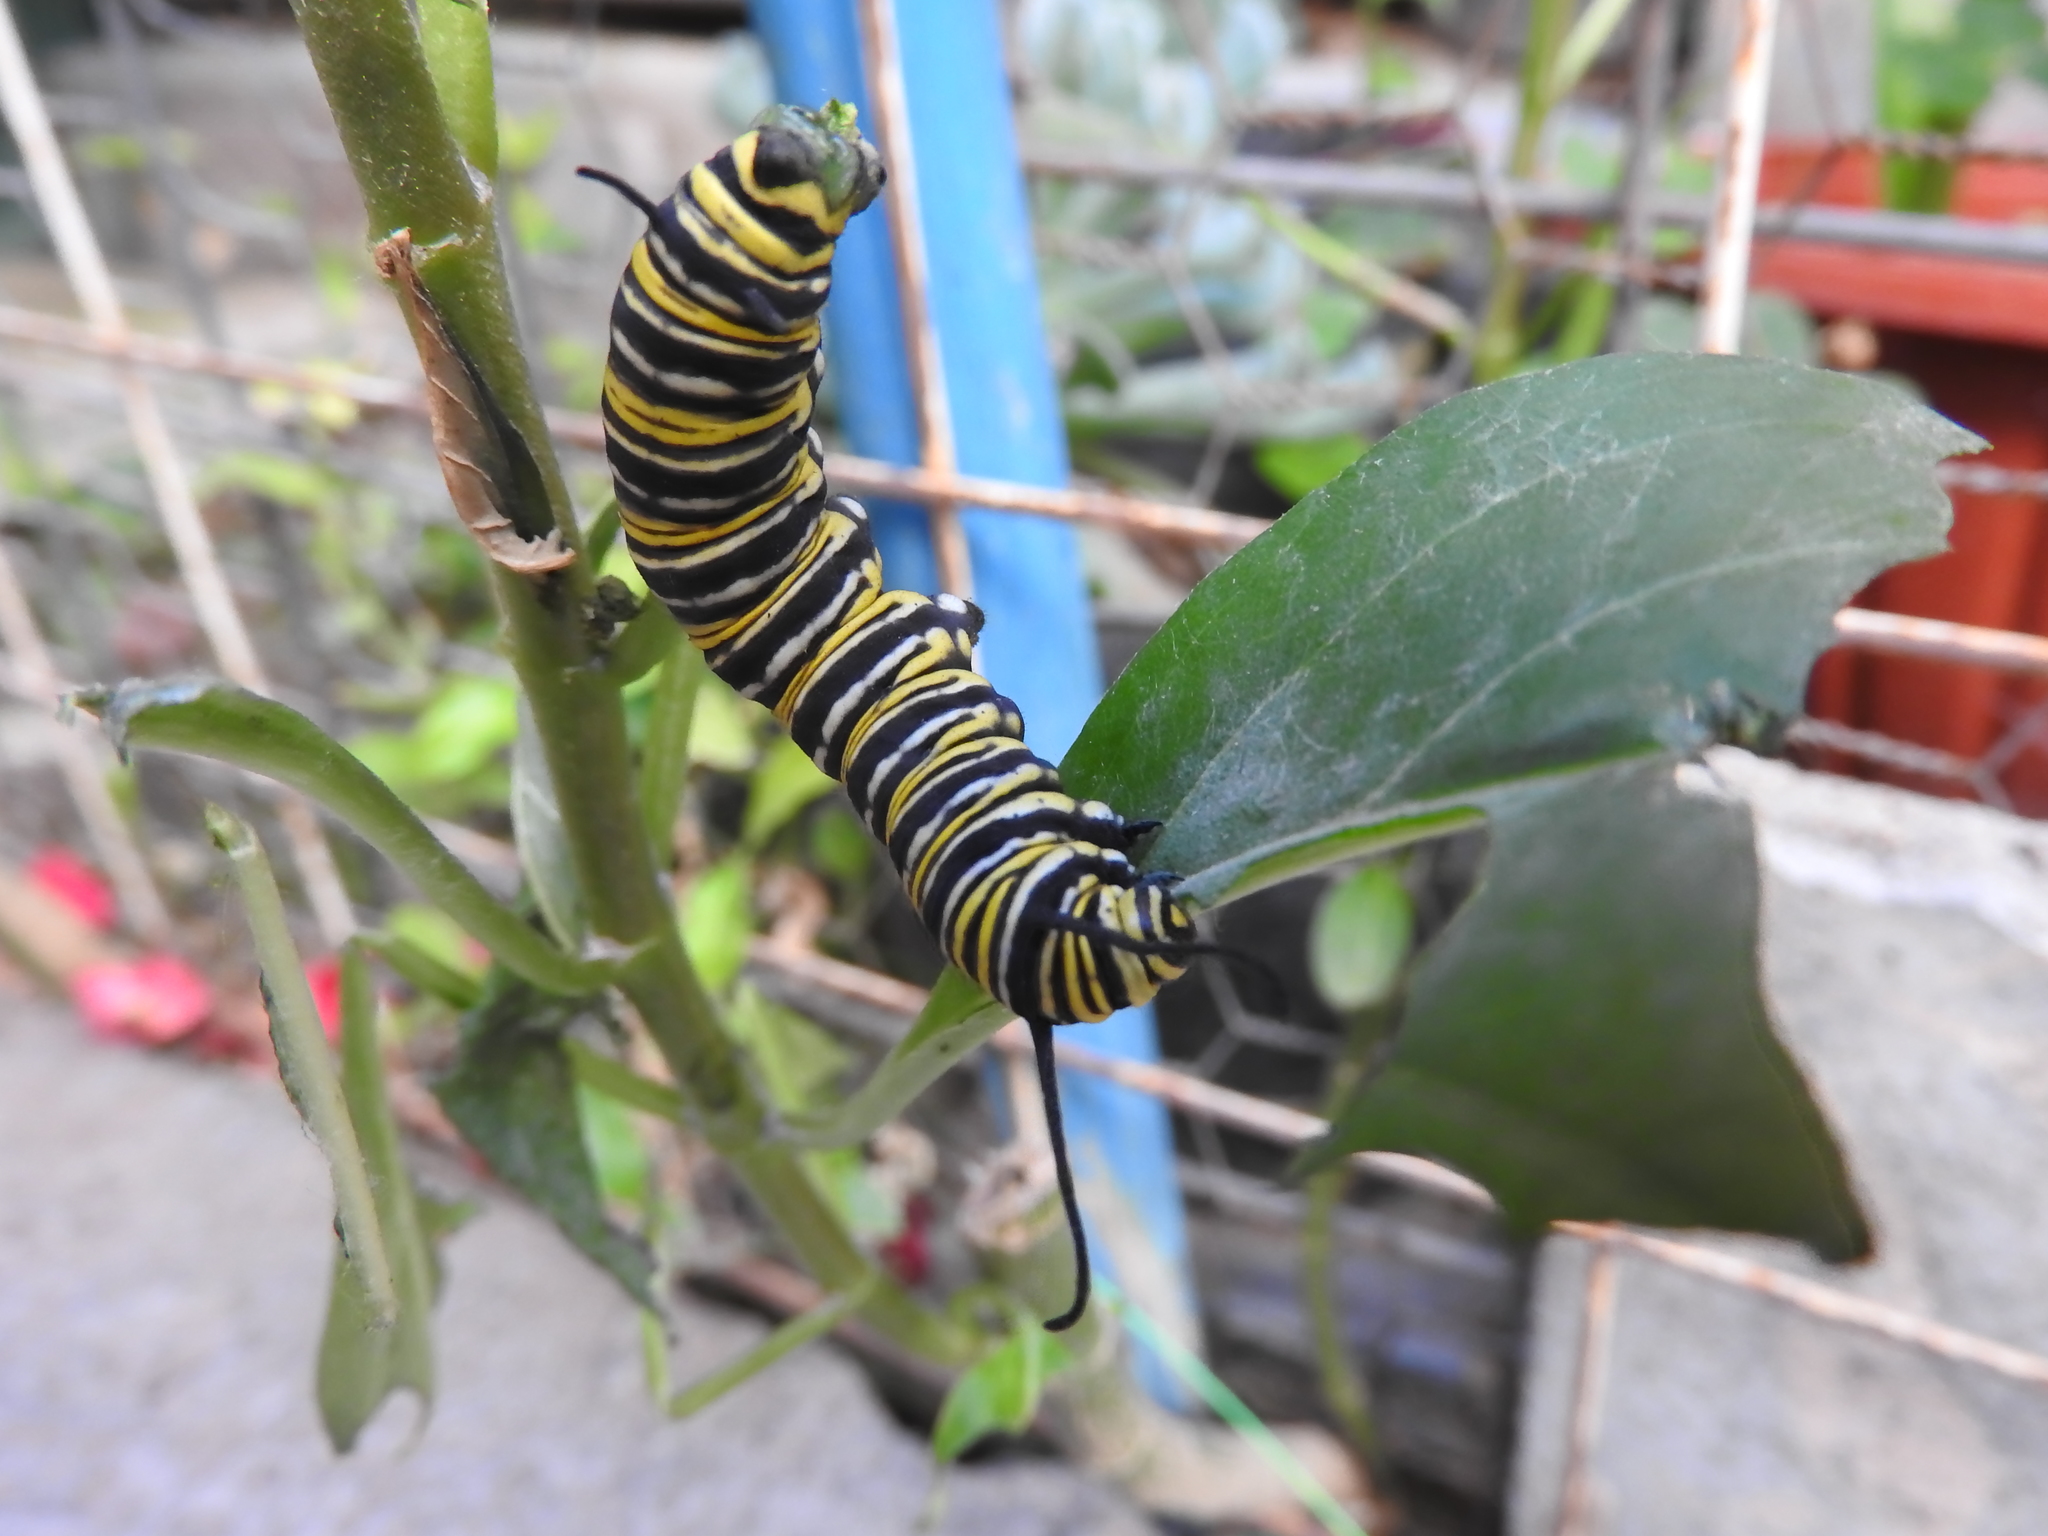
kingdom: Animalia
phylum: Arthropoda
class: Insecta
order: Lepidoptera
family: Nymphalidae
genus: Danaus
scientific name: Danaus plexippus
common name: Monarch
